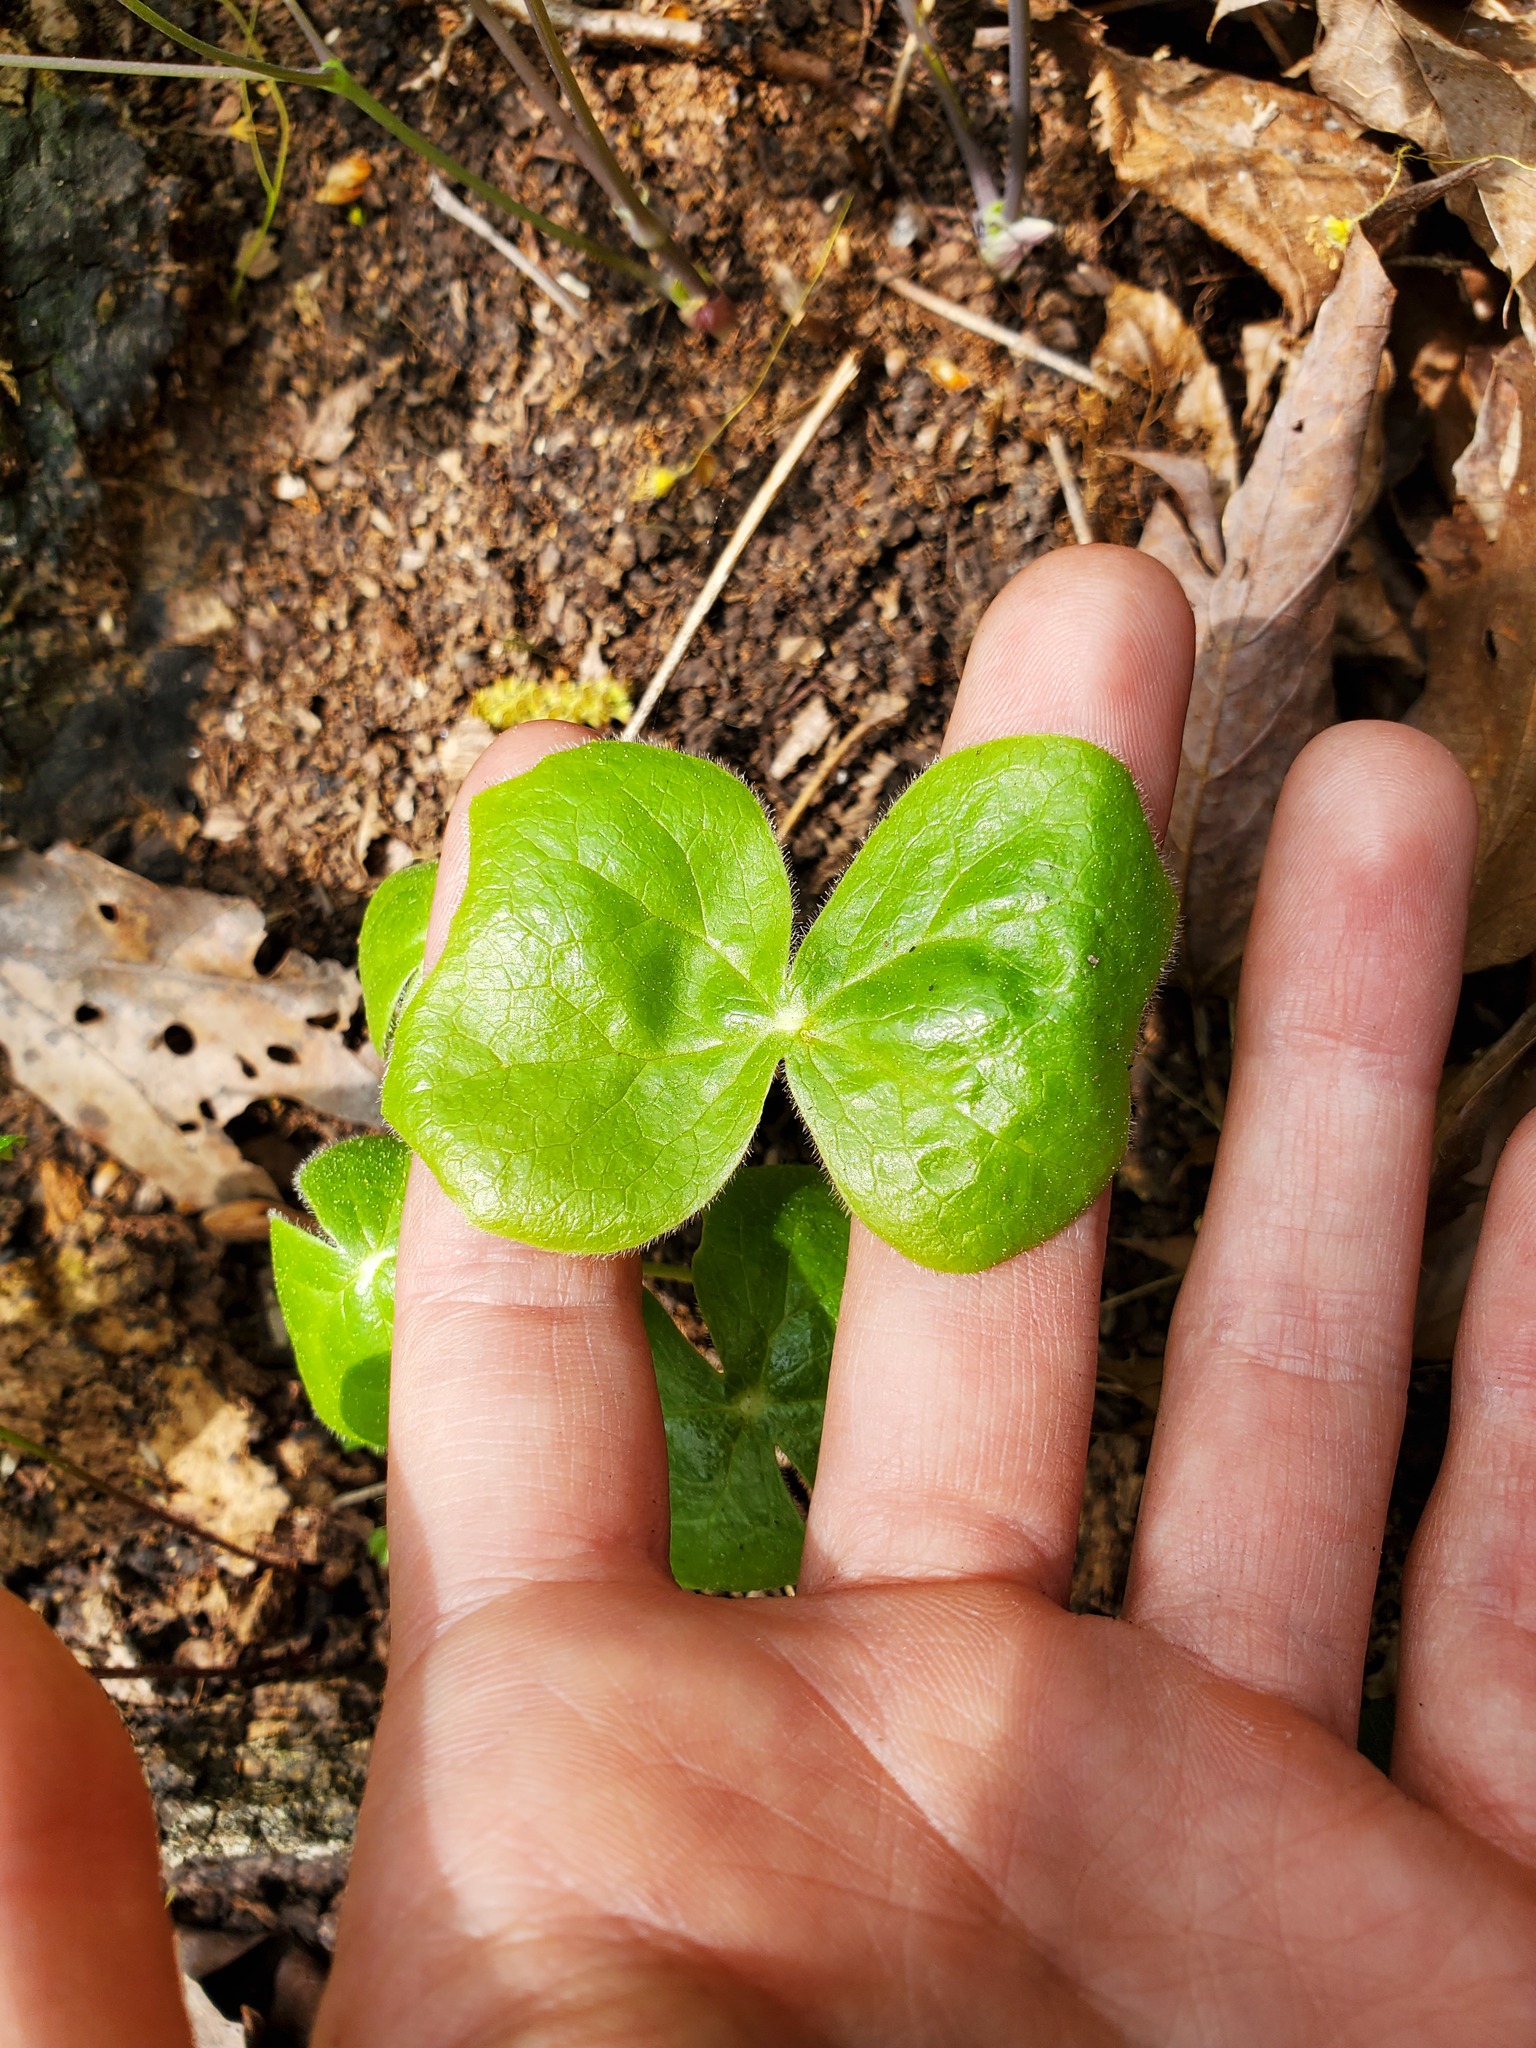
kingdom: Plantae
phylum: Tracheophyta
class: Magnoliopsida
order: Ranunculales
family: Berberidaceae
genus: Podophyllum
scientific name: Podophyllum peltatum
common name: Wild mandrake
